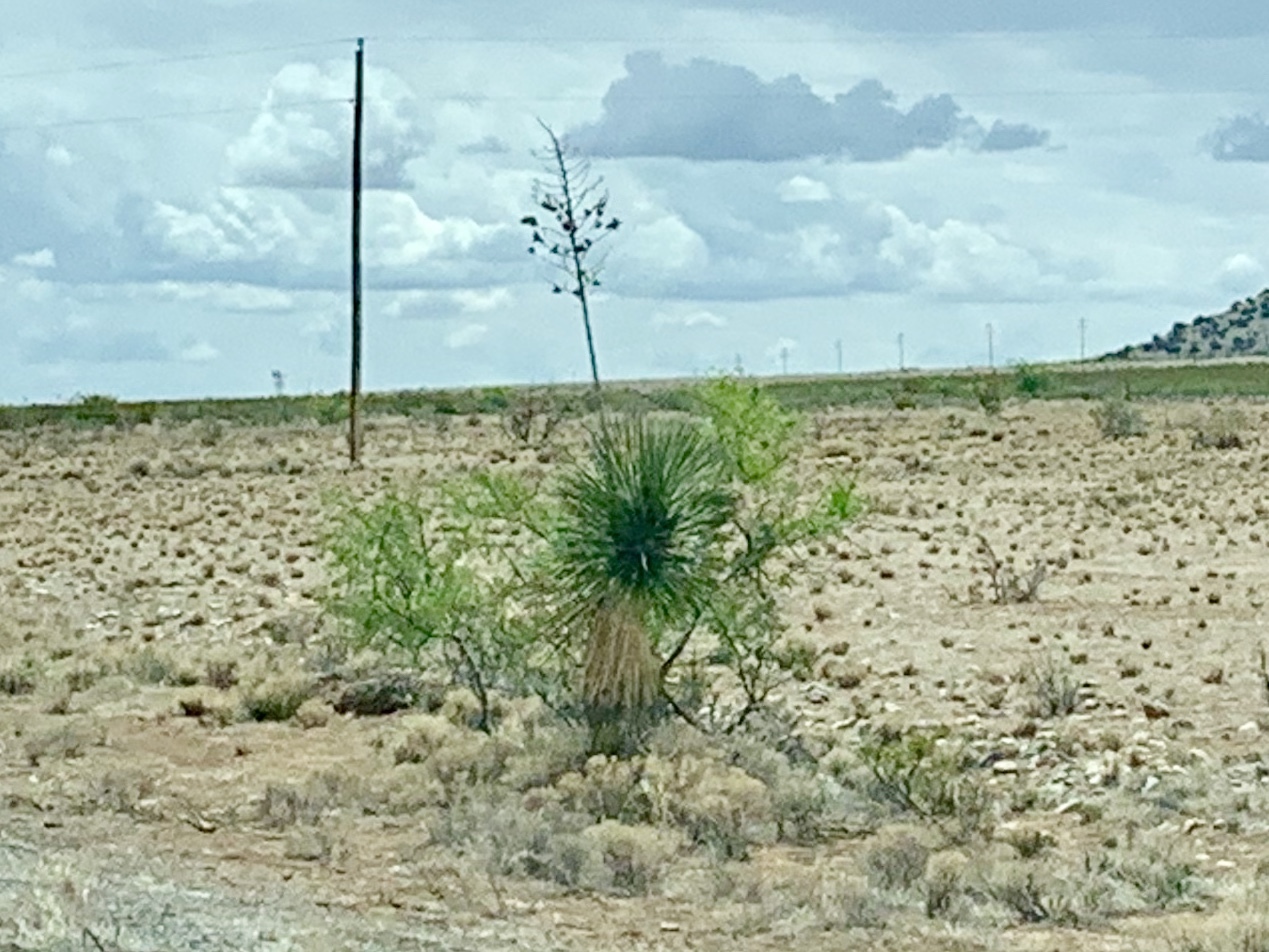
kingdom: Plantae
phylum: Tracheophyta
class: Liliopsida
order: Asparagales
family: Asparagaceae
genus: Yucca
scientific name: Yucca elata
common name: Palmella
